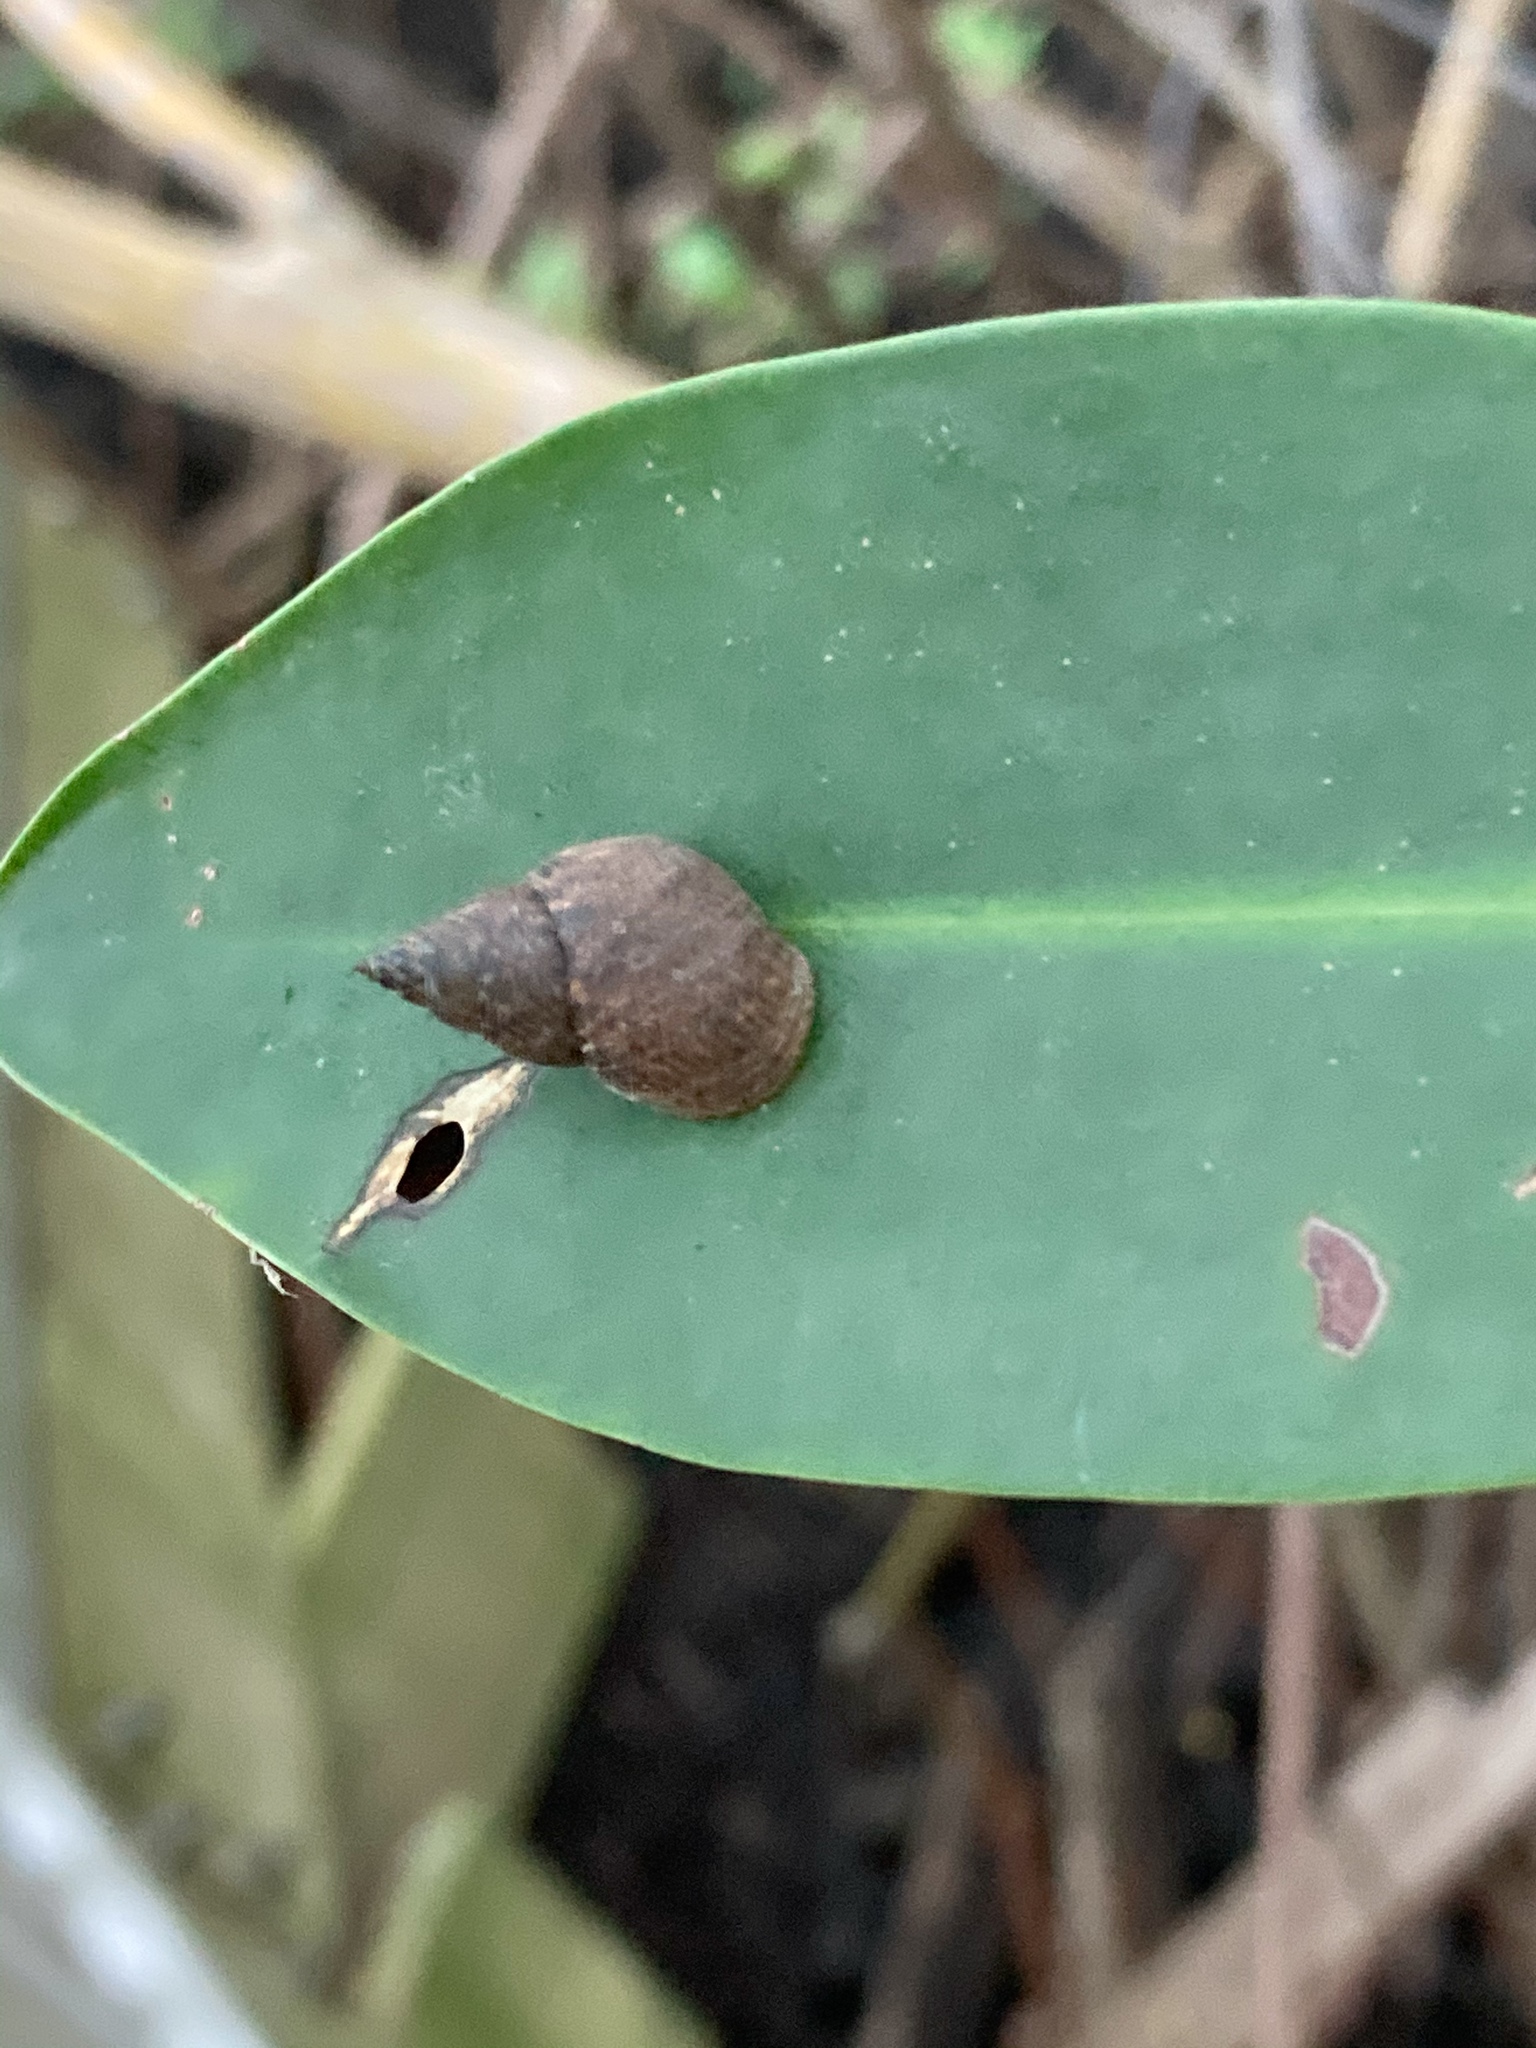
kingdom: Animalia
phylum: Mollusca
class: Gastropoda
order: Littorinimorpha
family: Littorinidae
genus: Littoraria
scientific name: Littoraria angulifera
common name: Mangrove periwinkle
